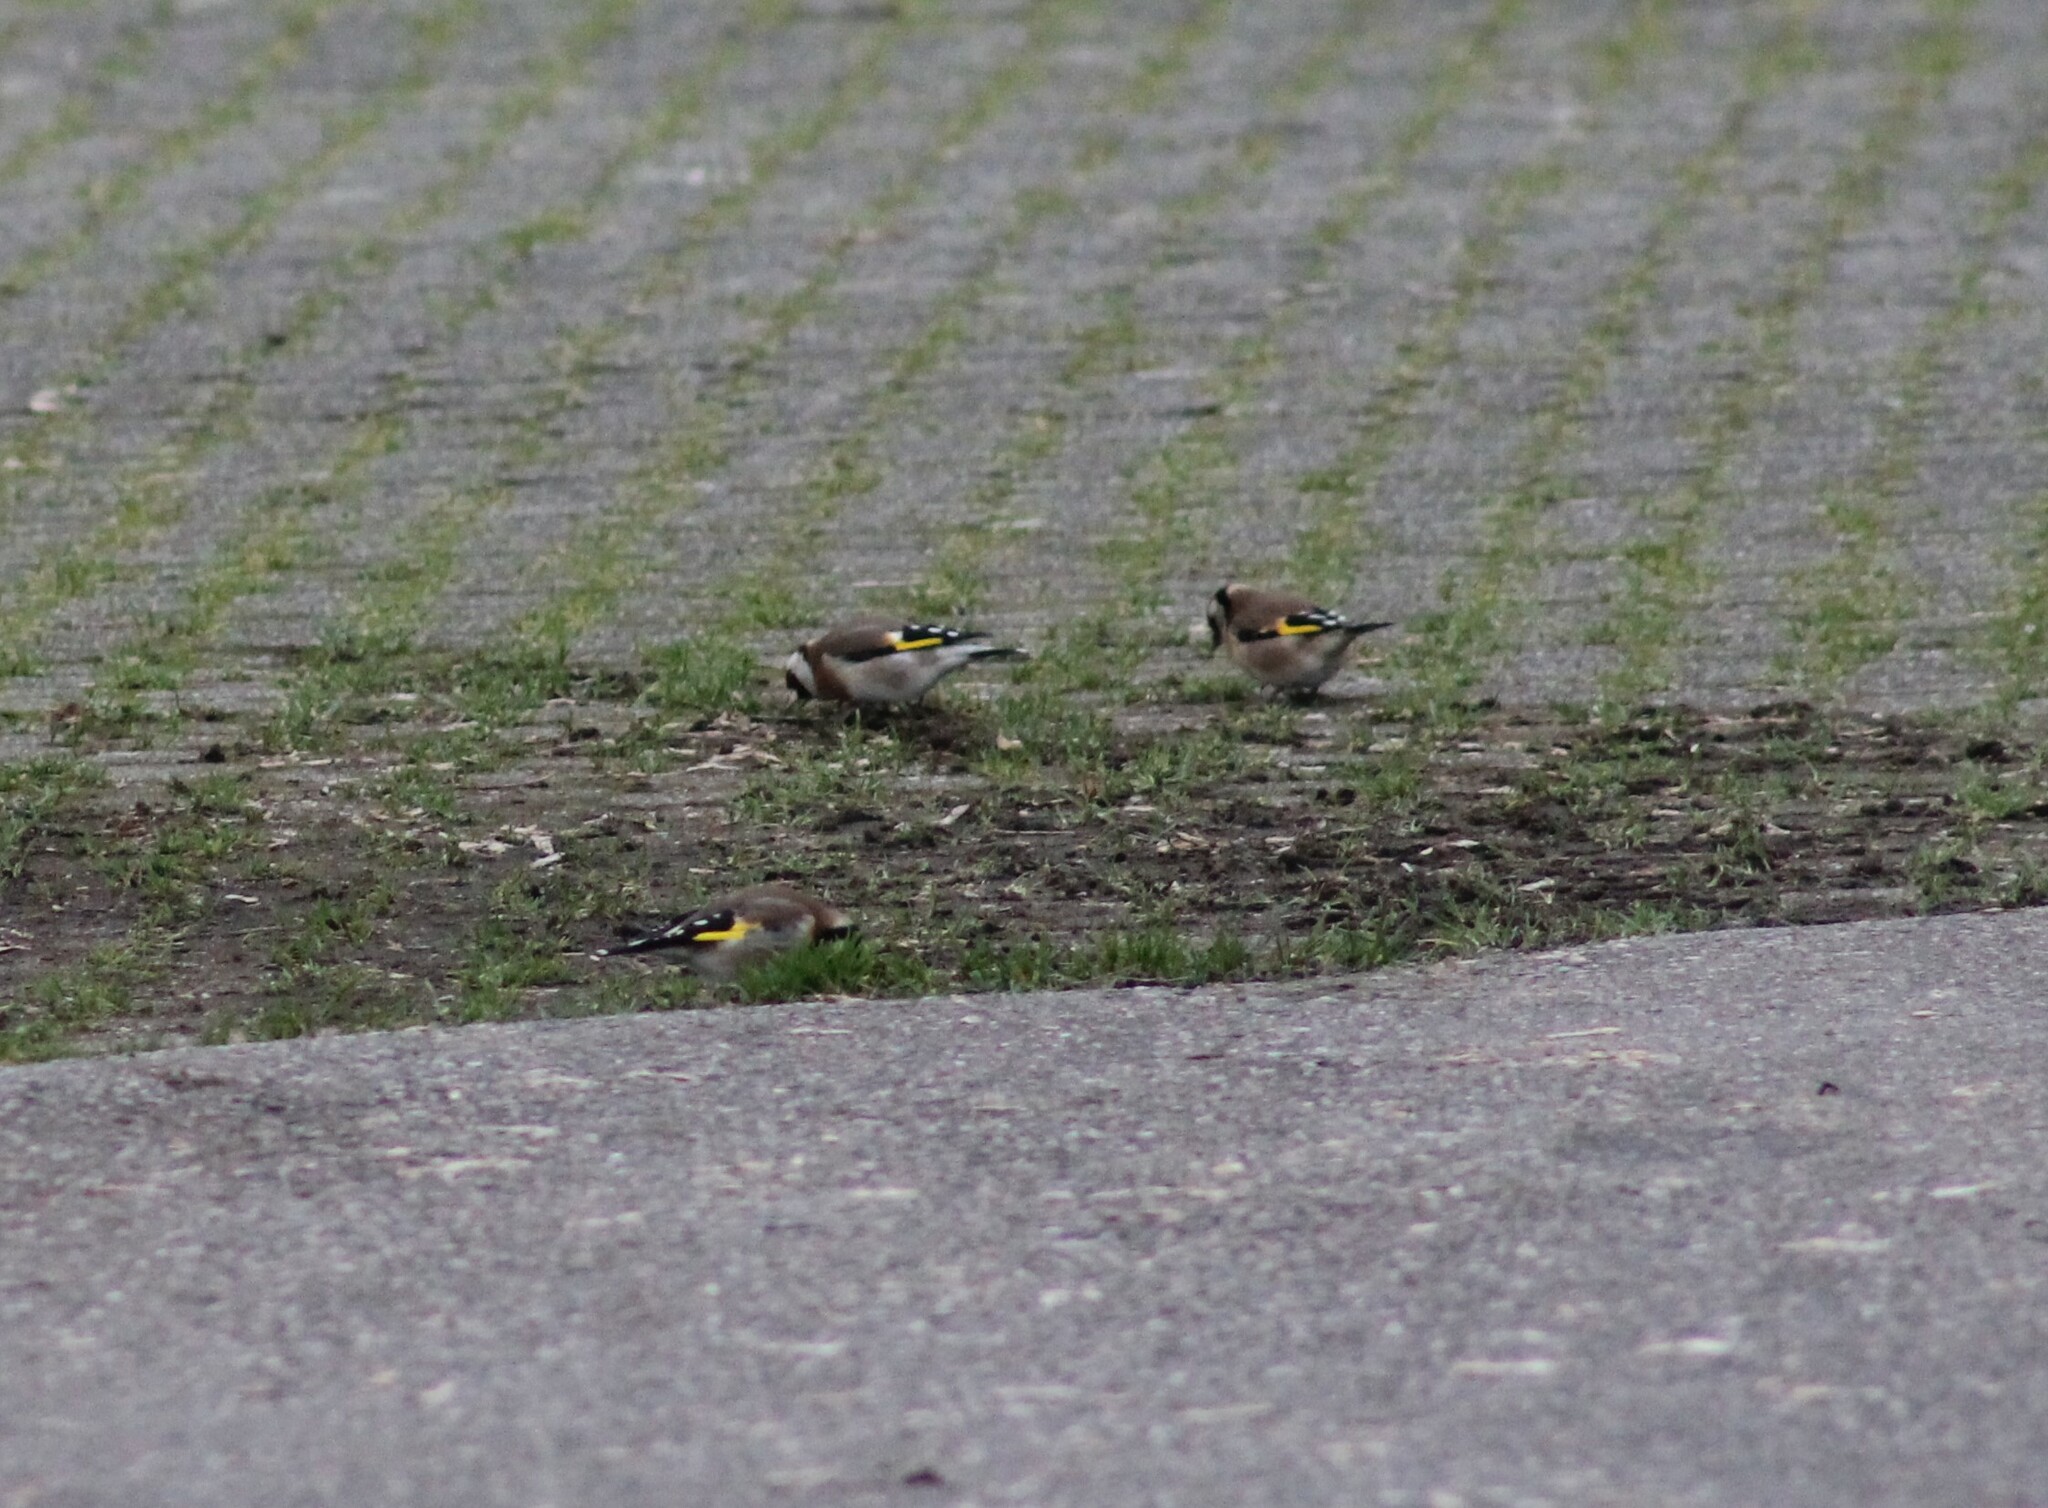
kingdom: Animalia
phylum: Chordata
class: Aves
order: Passeriformes
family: Fringillidae
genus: Carduelis
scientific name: Carduelis carduelis
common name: European goldfinch
